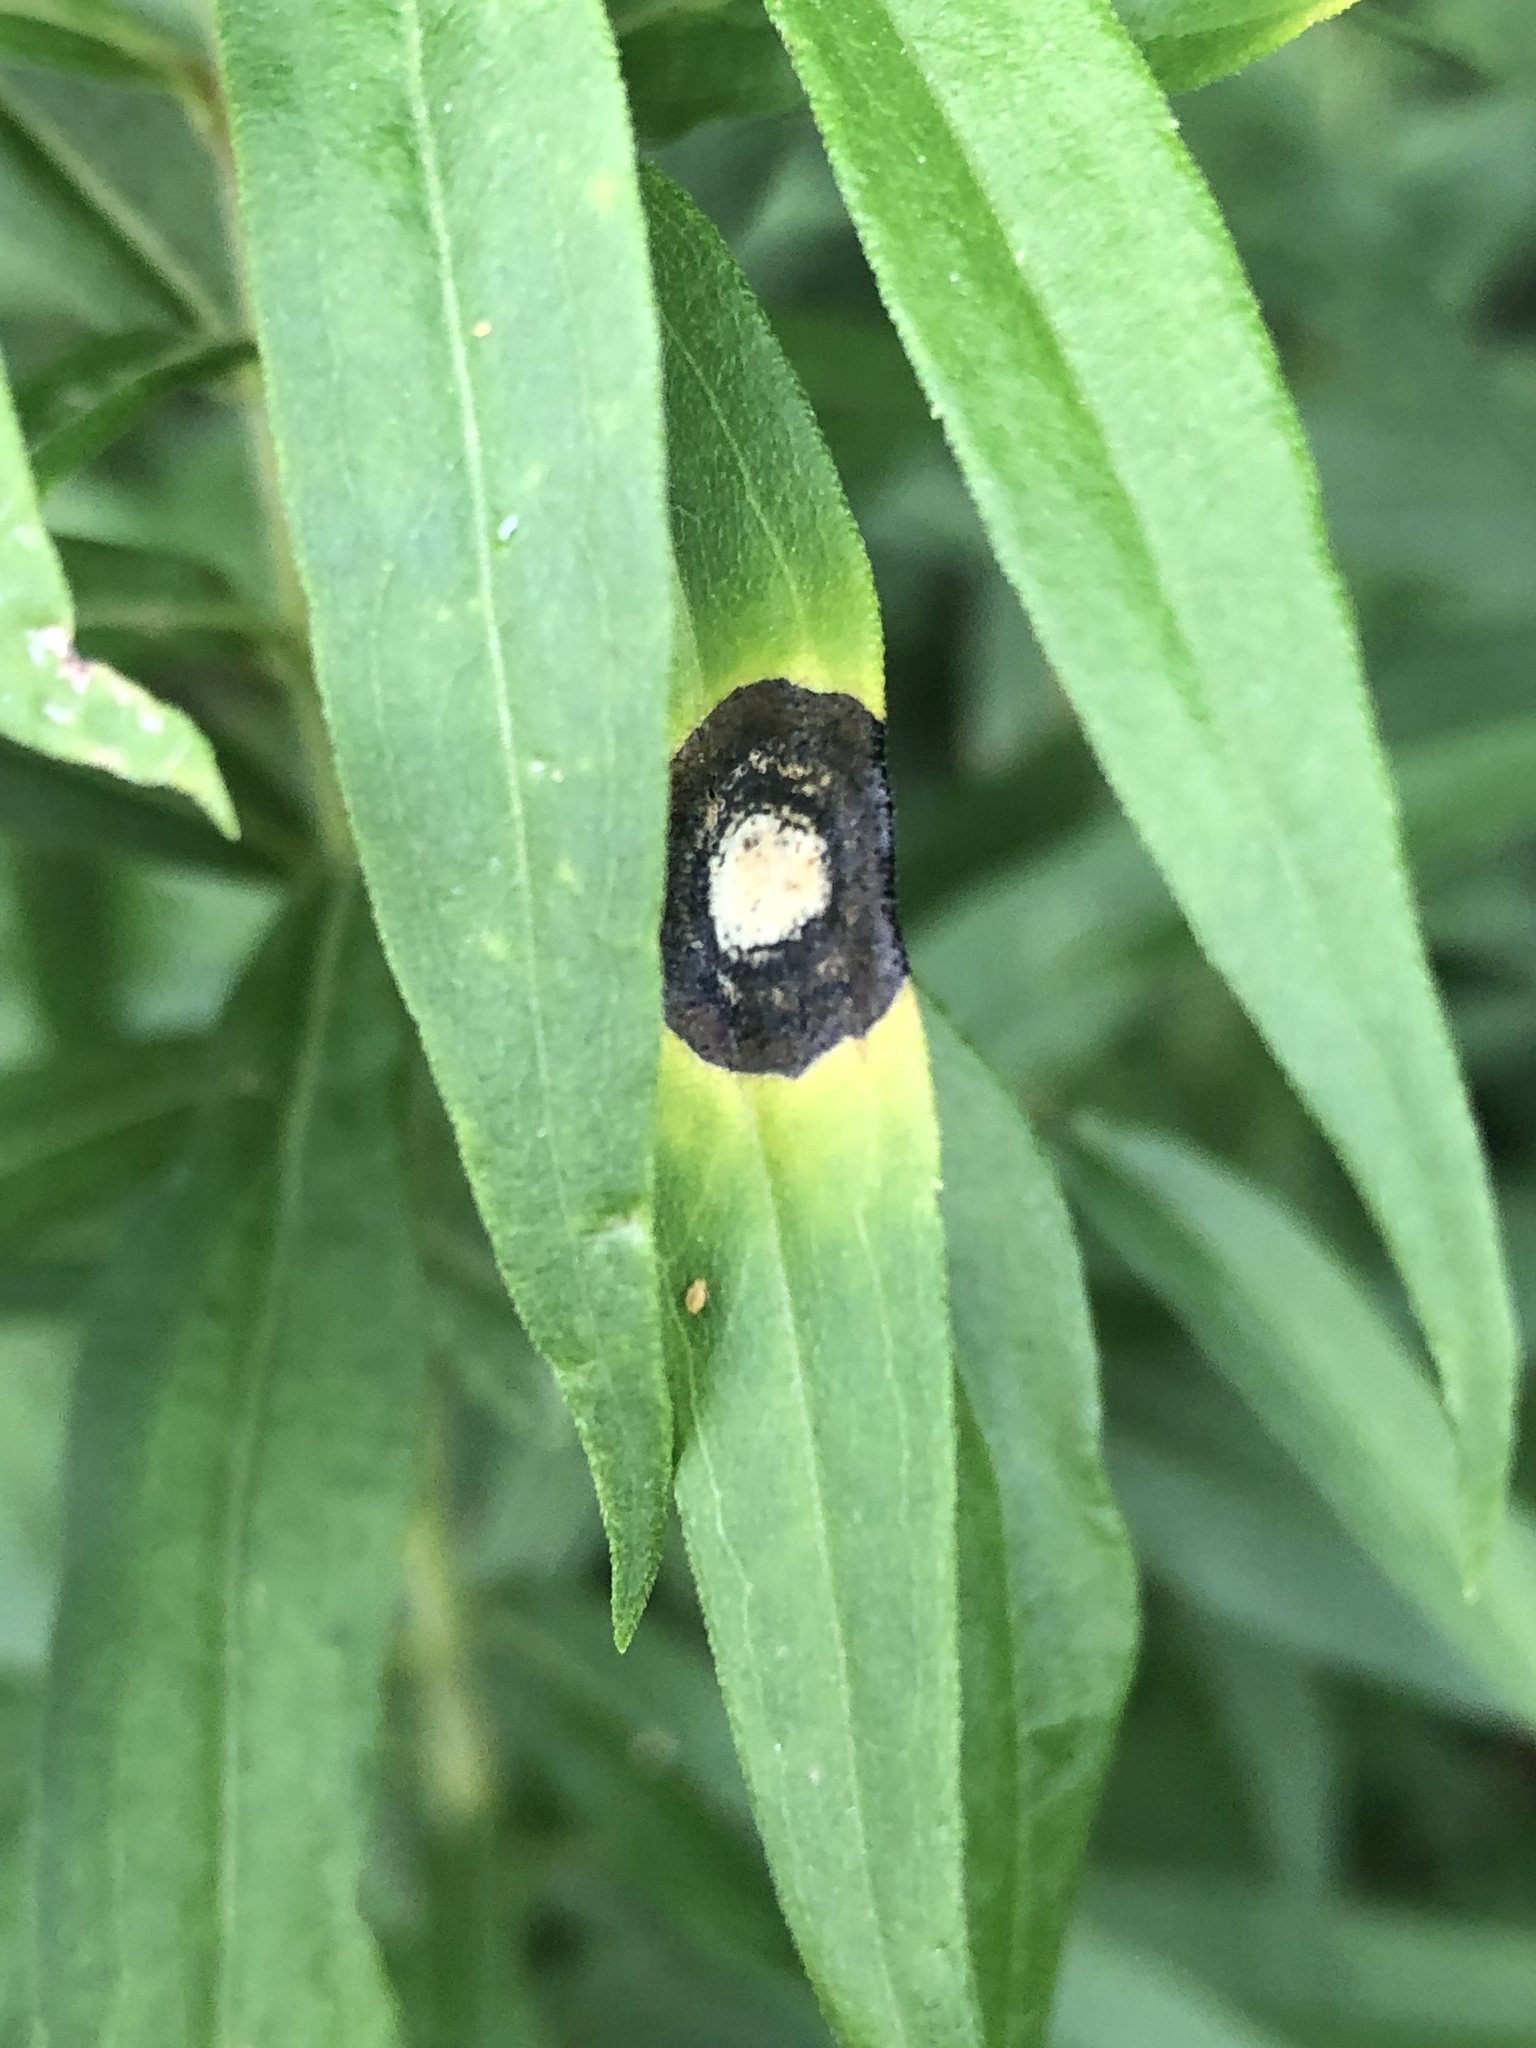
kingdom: Animalia
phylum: Arthropoda
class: Insecta
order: Diptera
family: Cecidomyiidae
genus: Asteromyia
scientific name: Asteromyia carbonifera
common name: Carbonifera goldenrod gall midge
